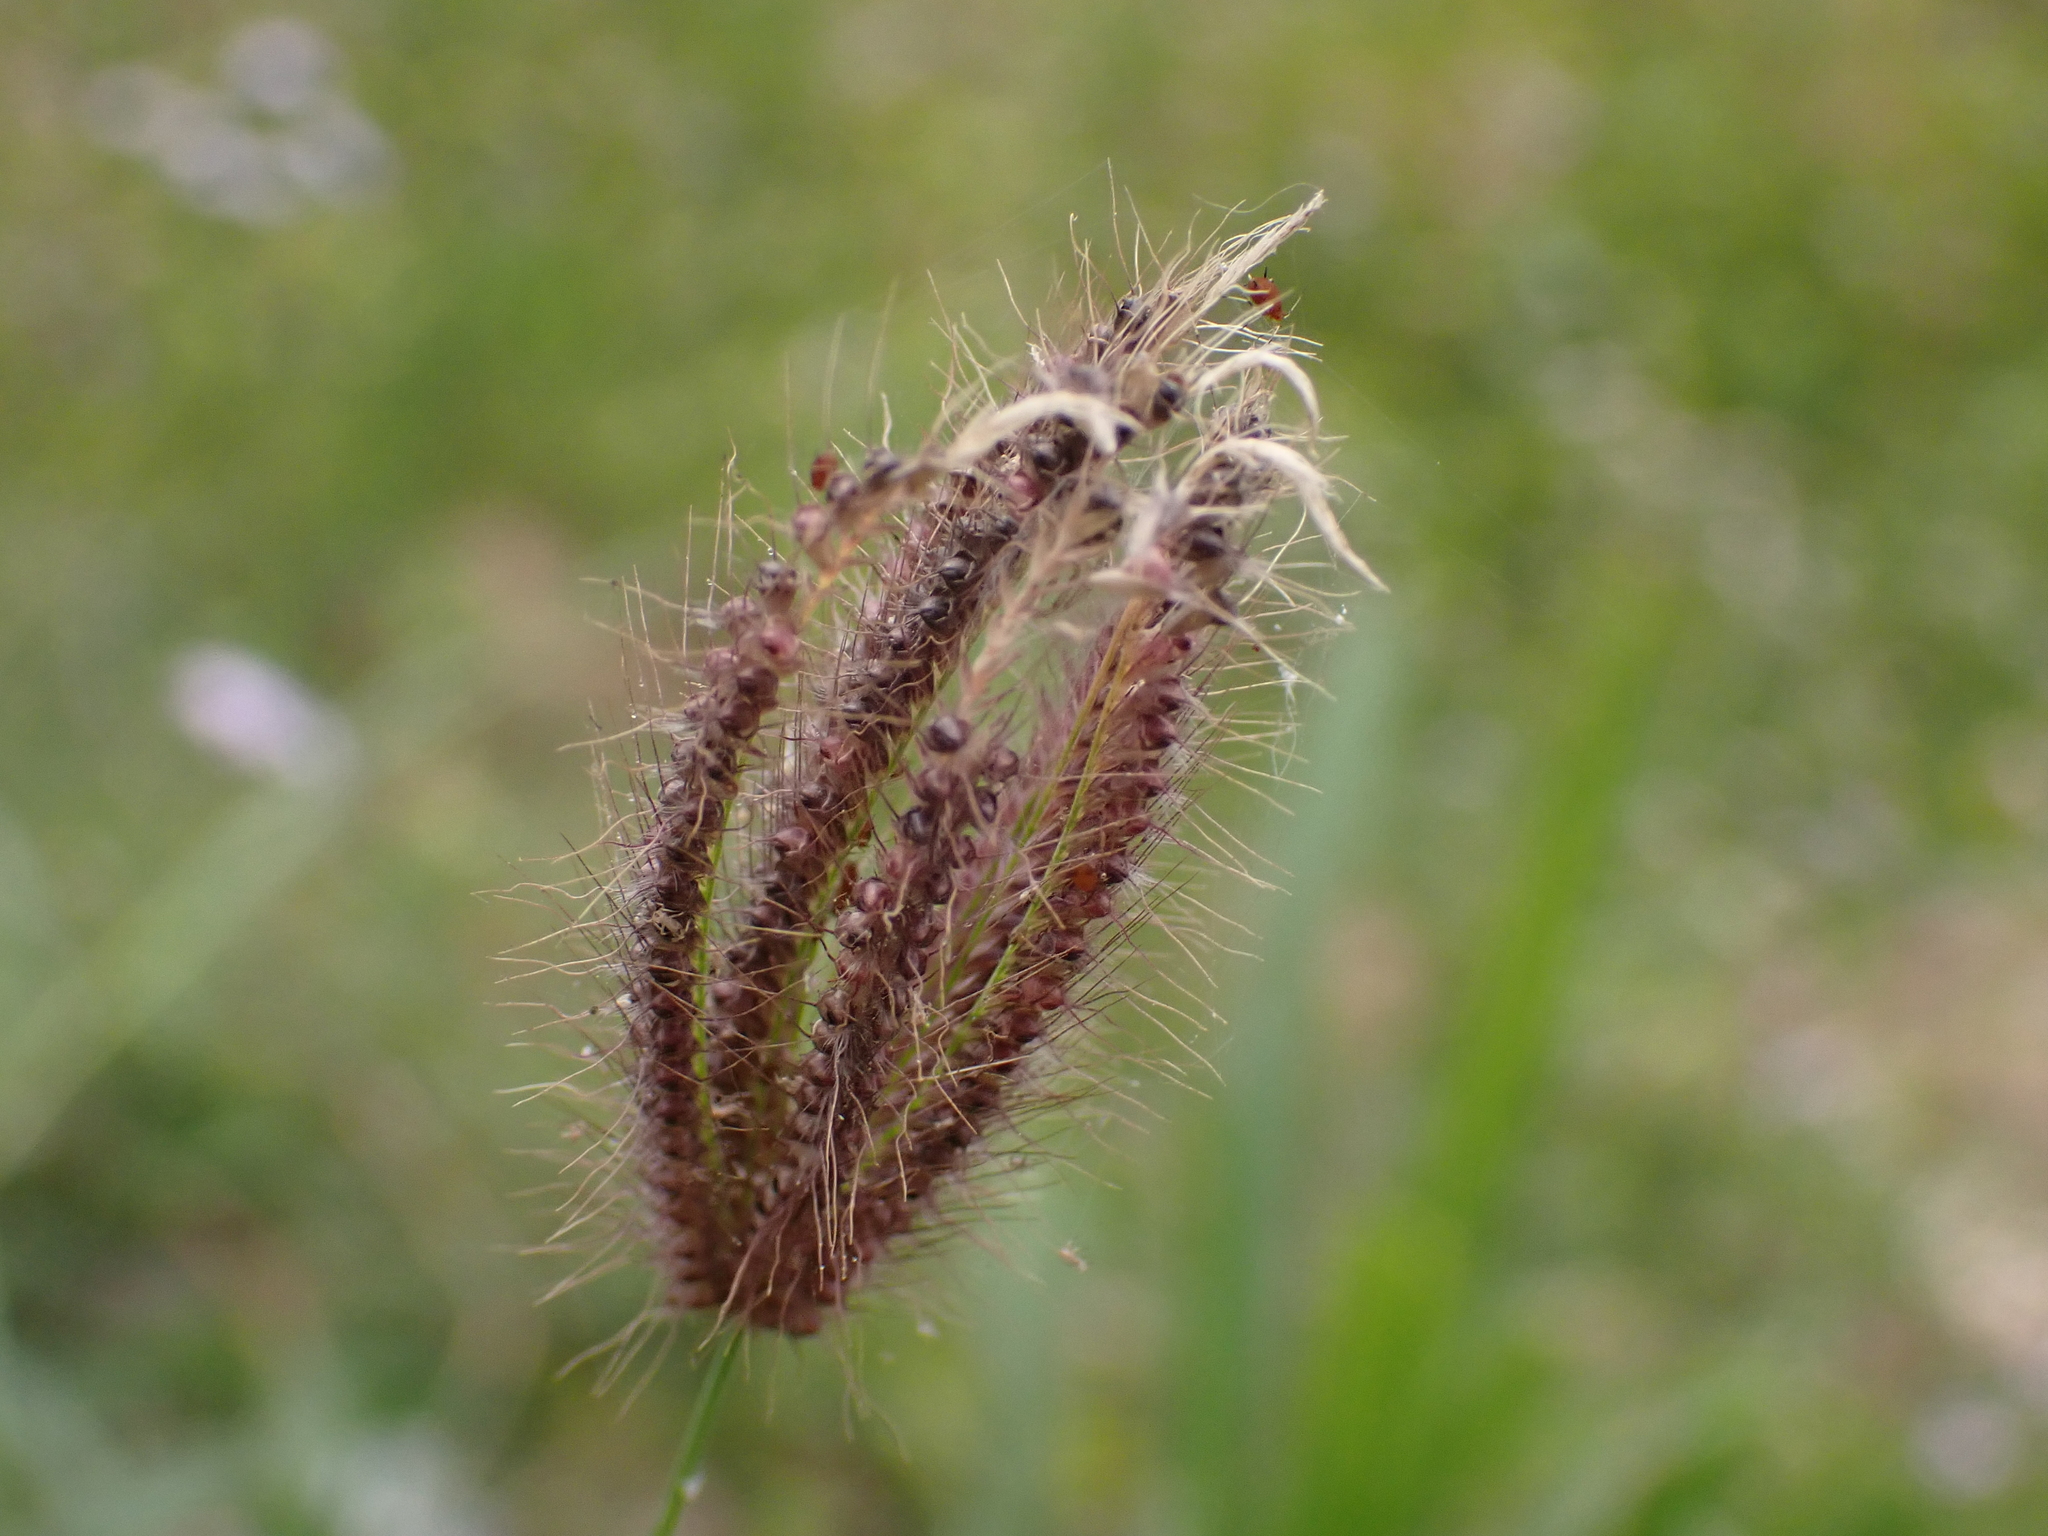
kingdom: Plantae
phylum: Tracheophyta
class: Liliopsida
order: Poales
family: Poaceae
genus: Chloris
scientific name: Chloris barbata
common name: Swollen fingergrass
